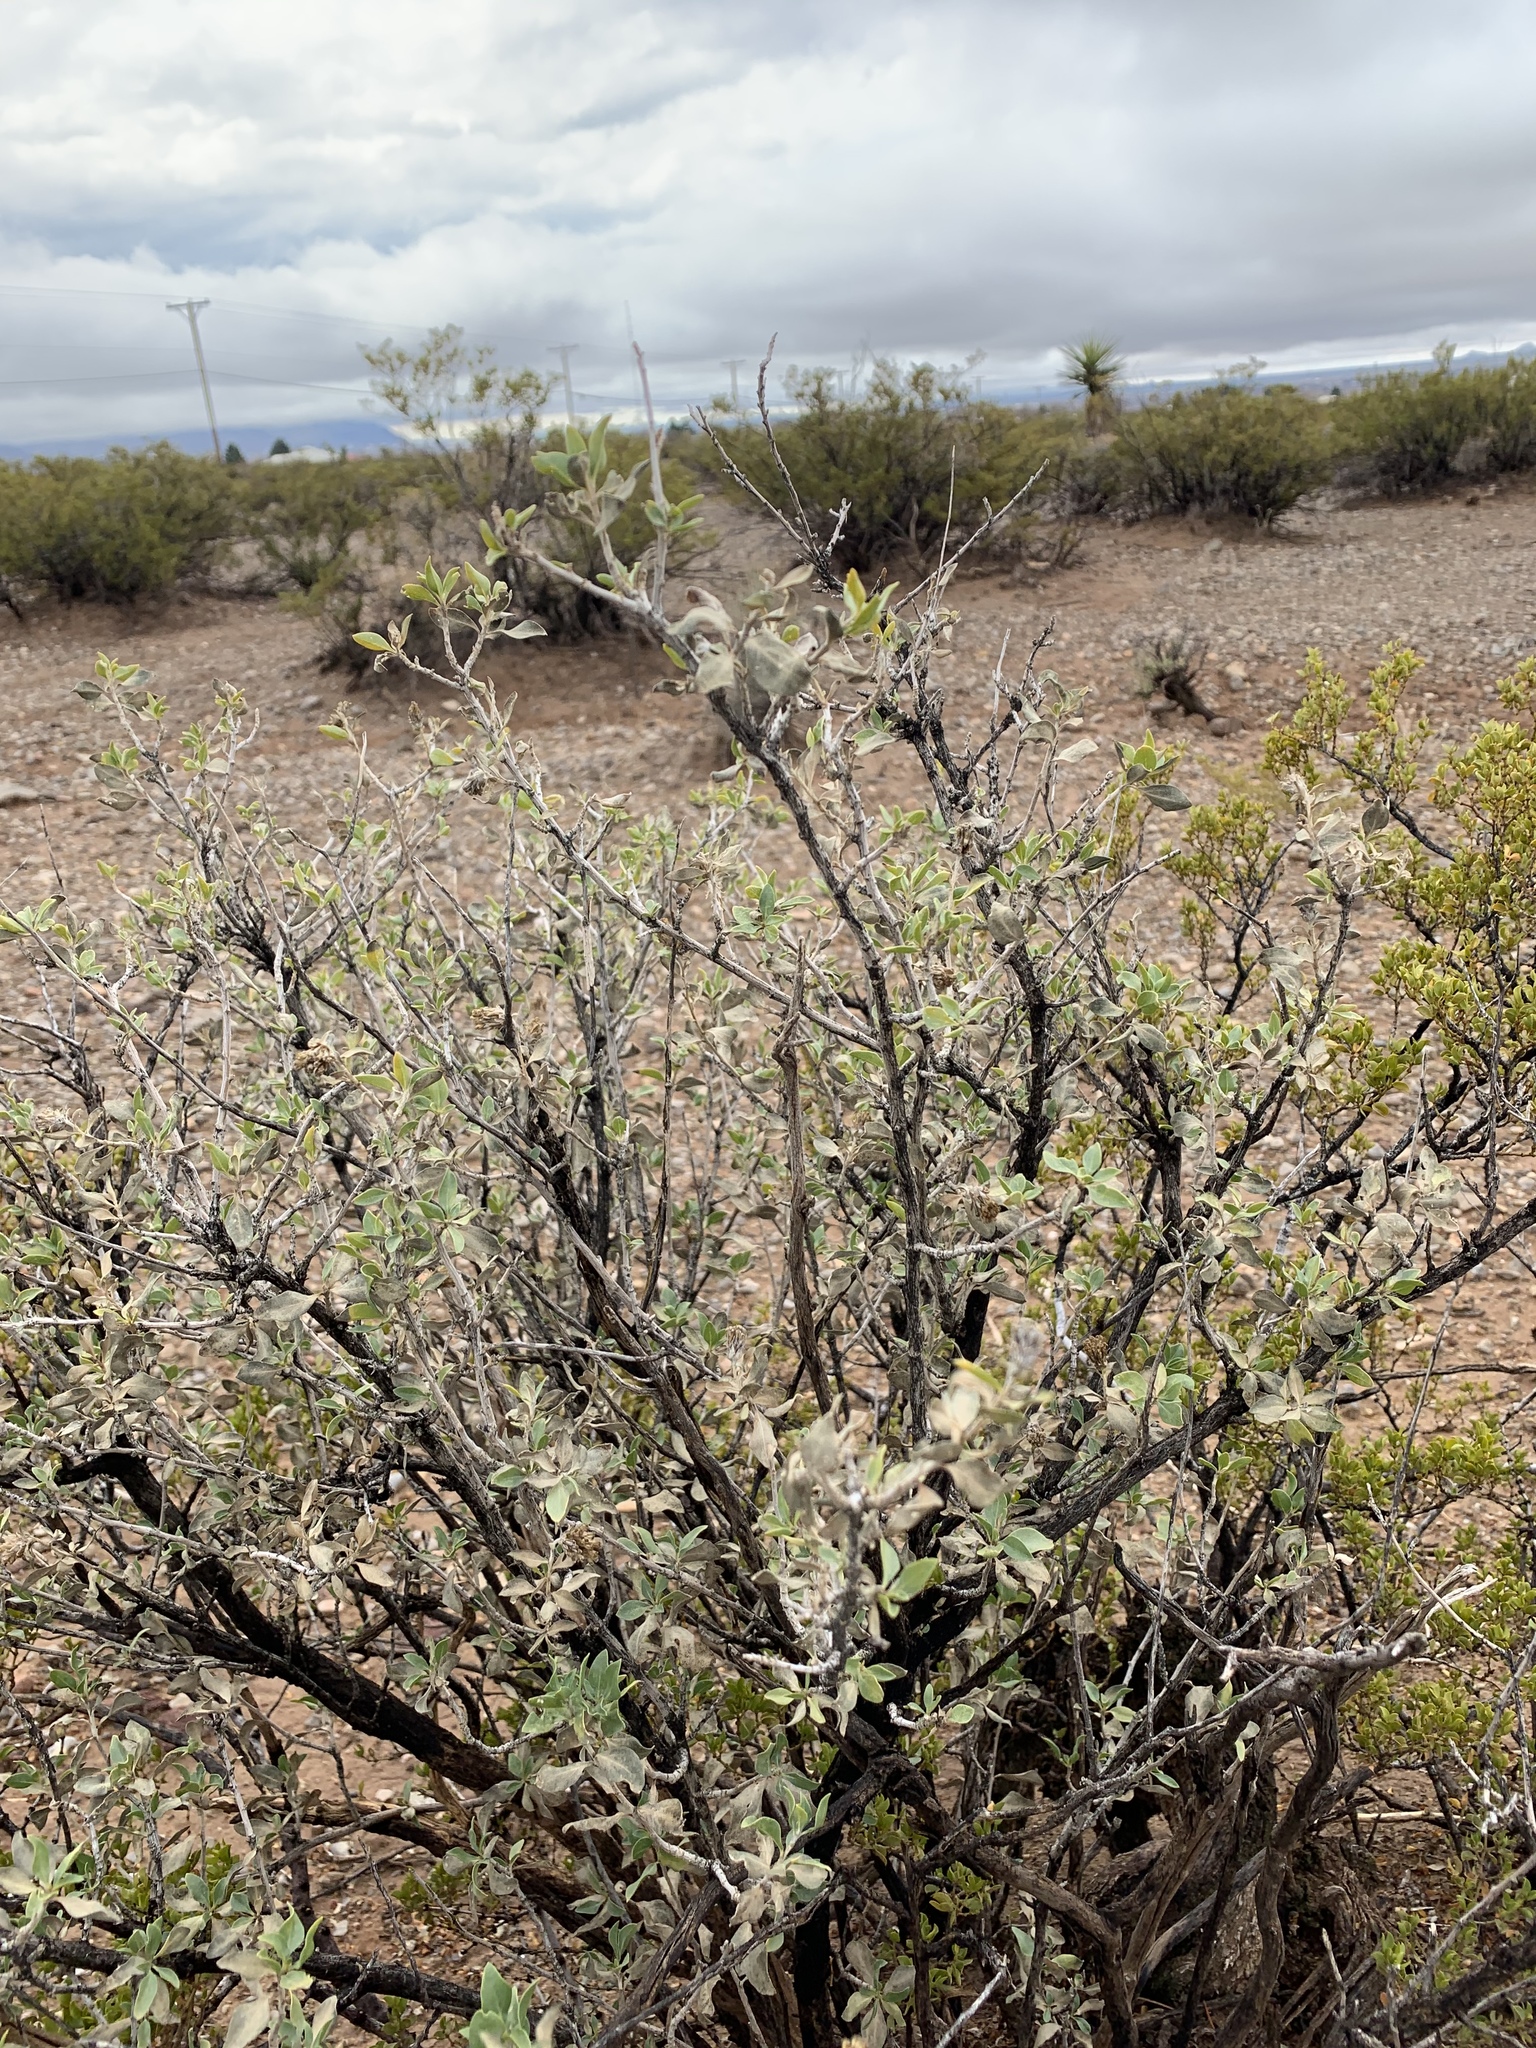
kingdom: Plantae
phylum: Tracheophyta
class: Magnoliopsida
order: Asterales
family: Asteraceae
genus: Flourensia
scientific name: Flourensia cernua
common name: Varnishbush
